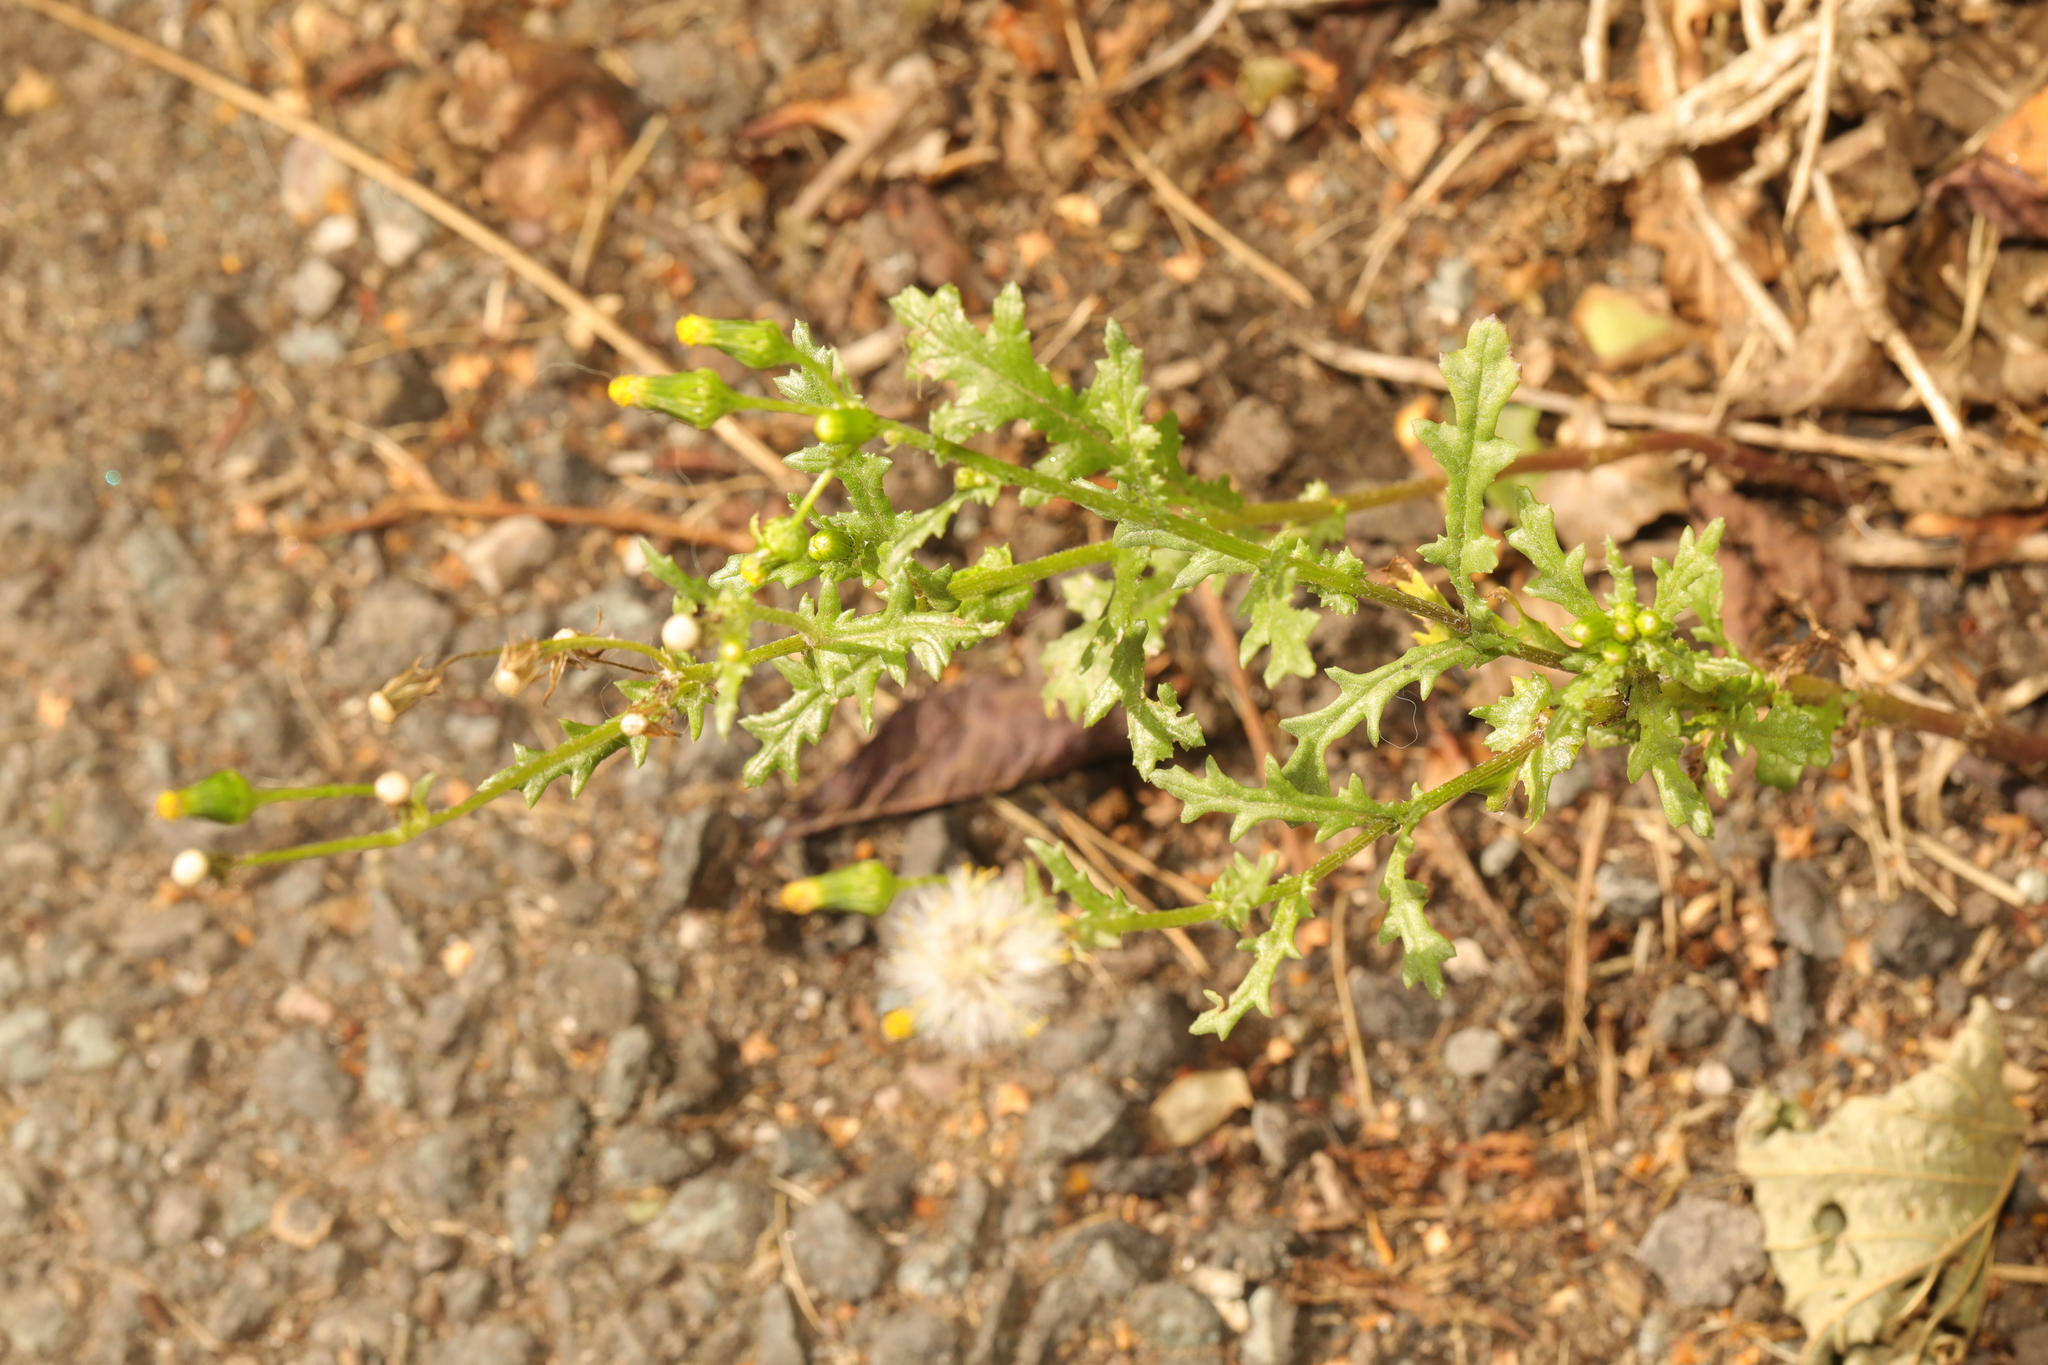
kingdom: Plantae
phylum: Tracheophyta
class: Magnoliopsida
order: Asterales
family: Asteraceae
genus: Senecio
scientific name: Senecio vulgaris
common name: Old-man-in-the-spring
